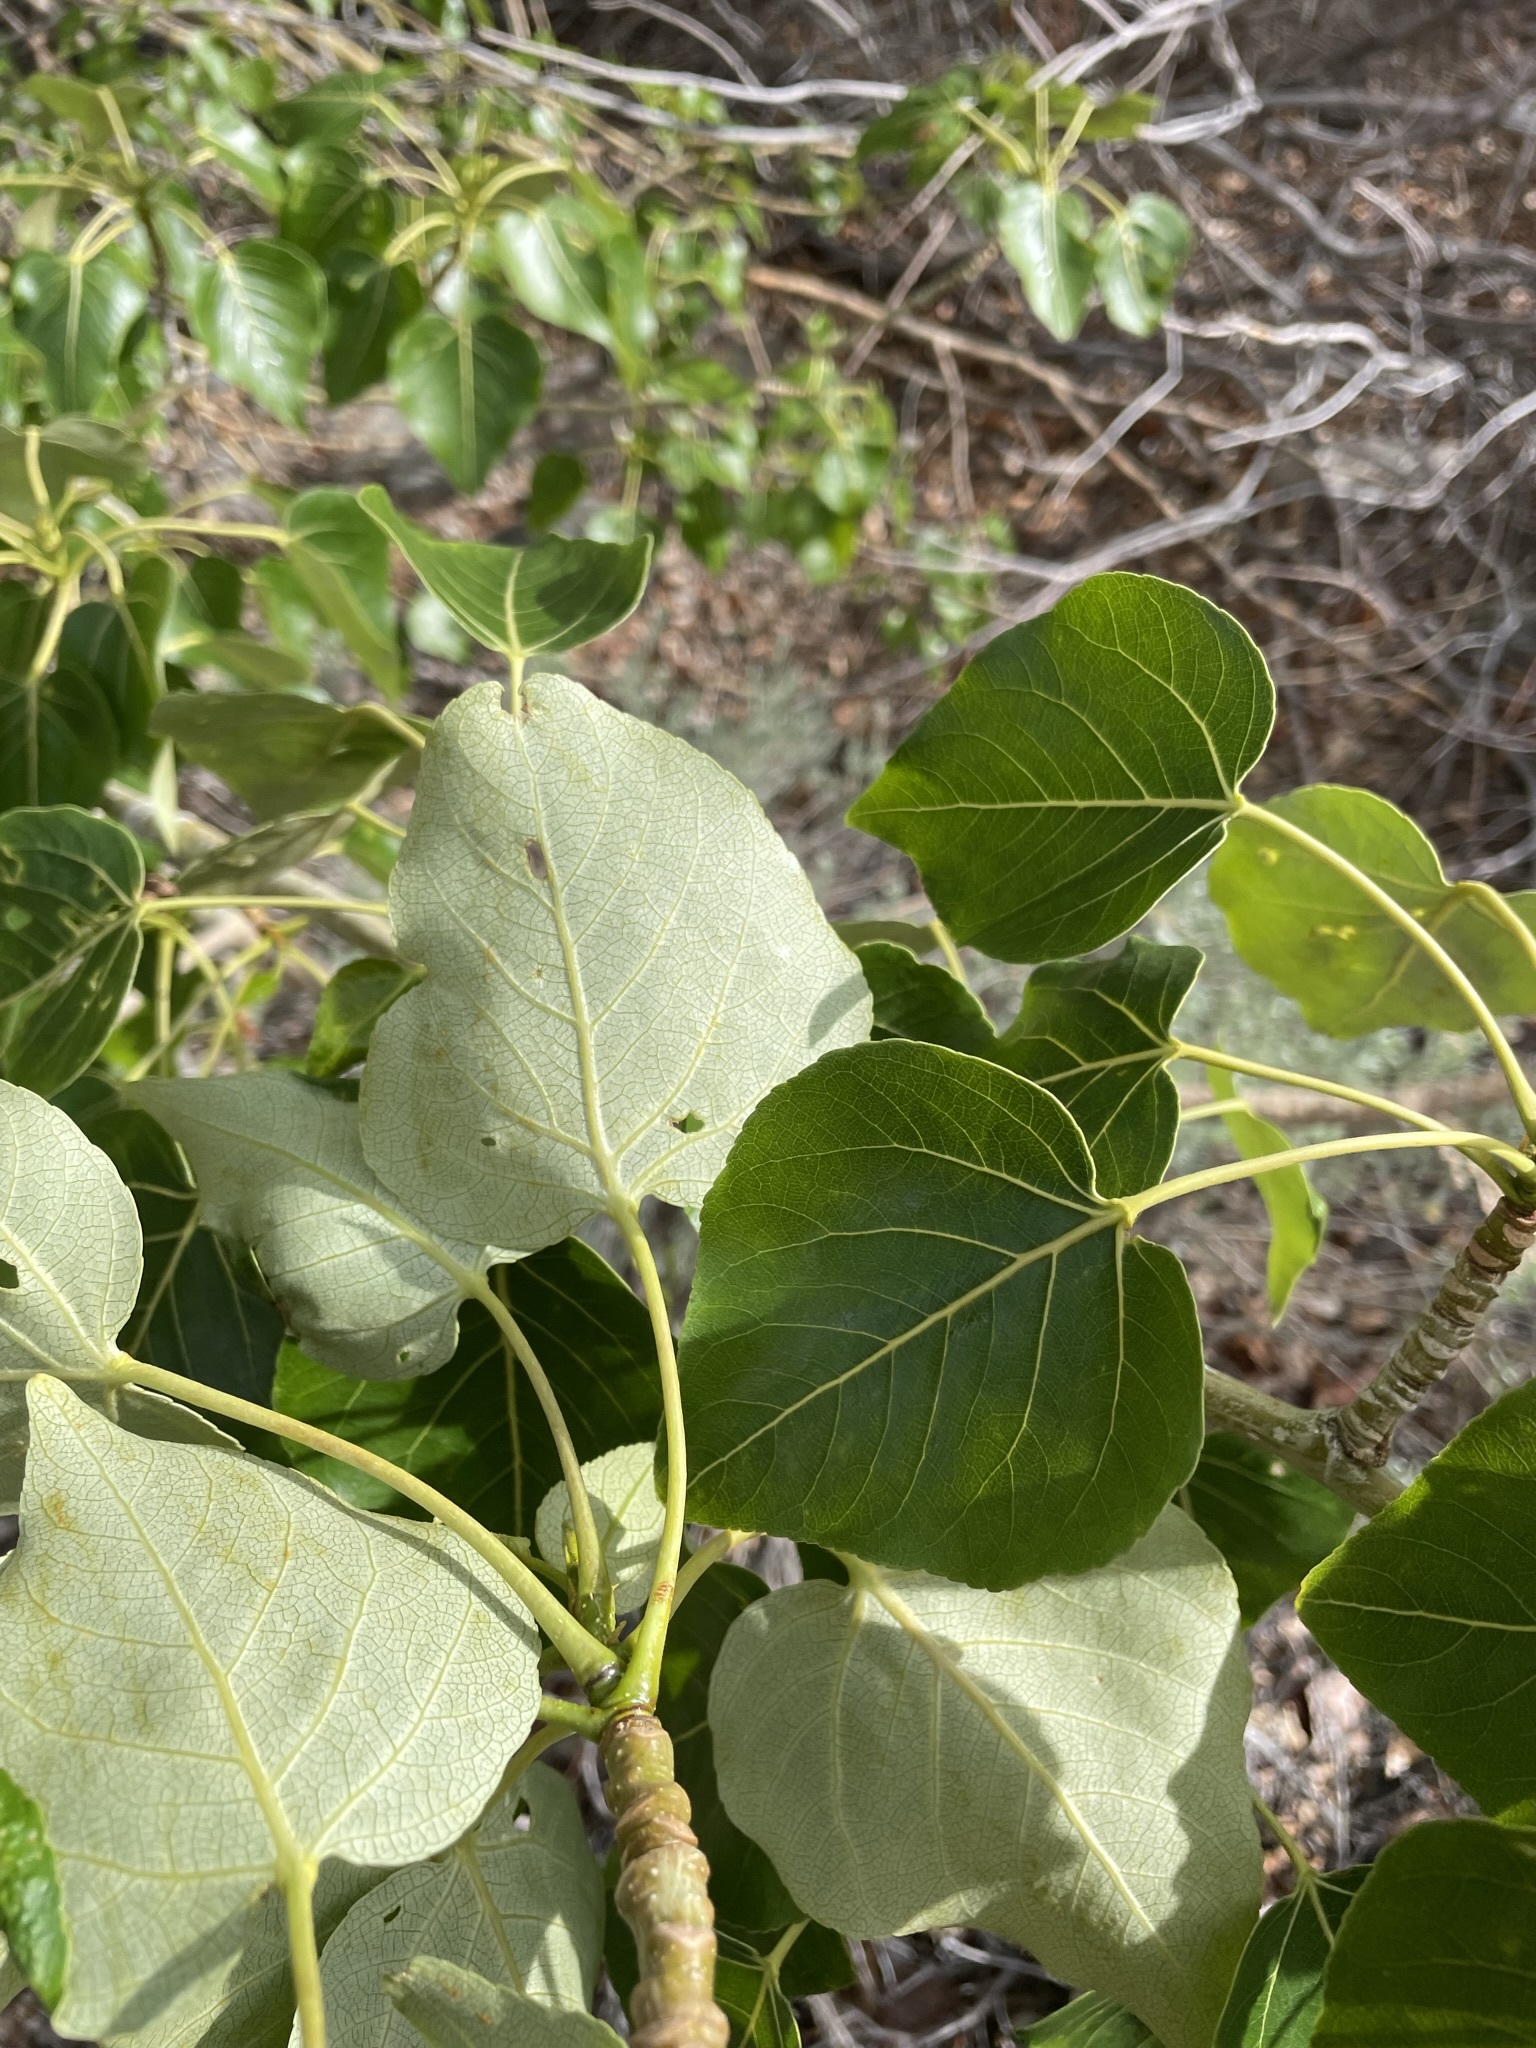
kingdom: Plantae
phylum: Tracheophyta
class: Magnoliopsida
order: Malpighiales
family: Salicaceae
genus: Populus
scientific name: Populus trichocarpa
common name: Black cottonwood
